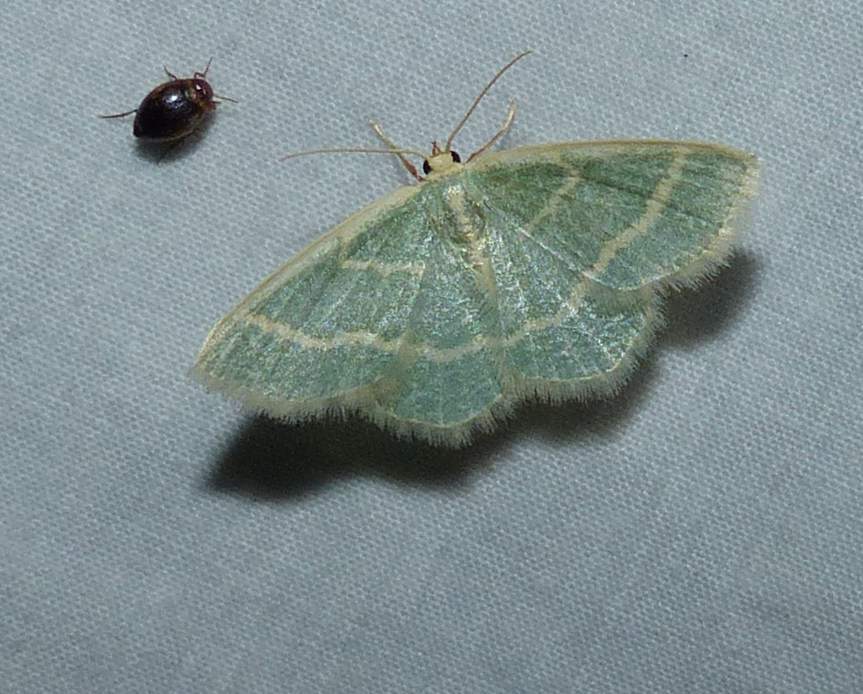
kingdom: Animalia
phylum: Arthropoda
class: Insecta
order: Lepidoptera
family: Geometridae
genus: Chlorochlamys
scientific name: Chlorochlamys chloroleucaria
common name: Blackberry looper
